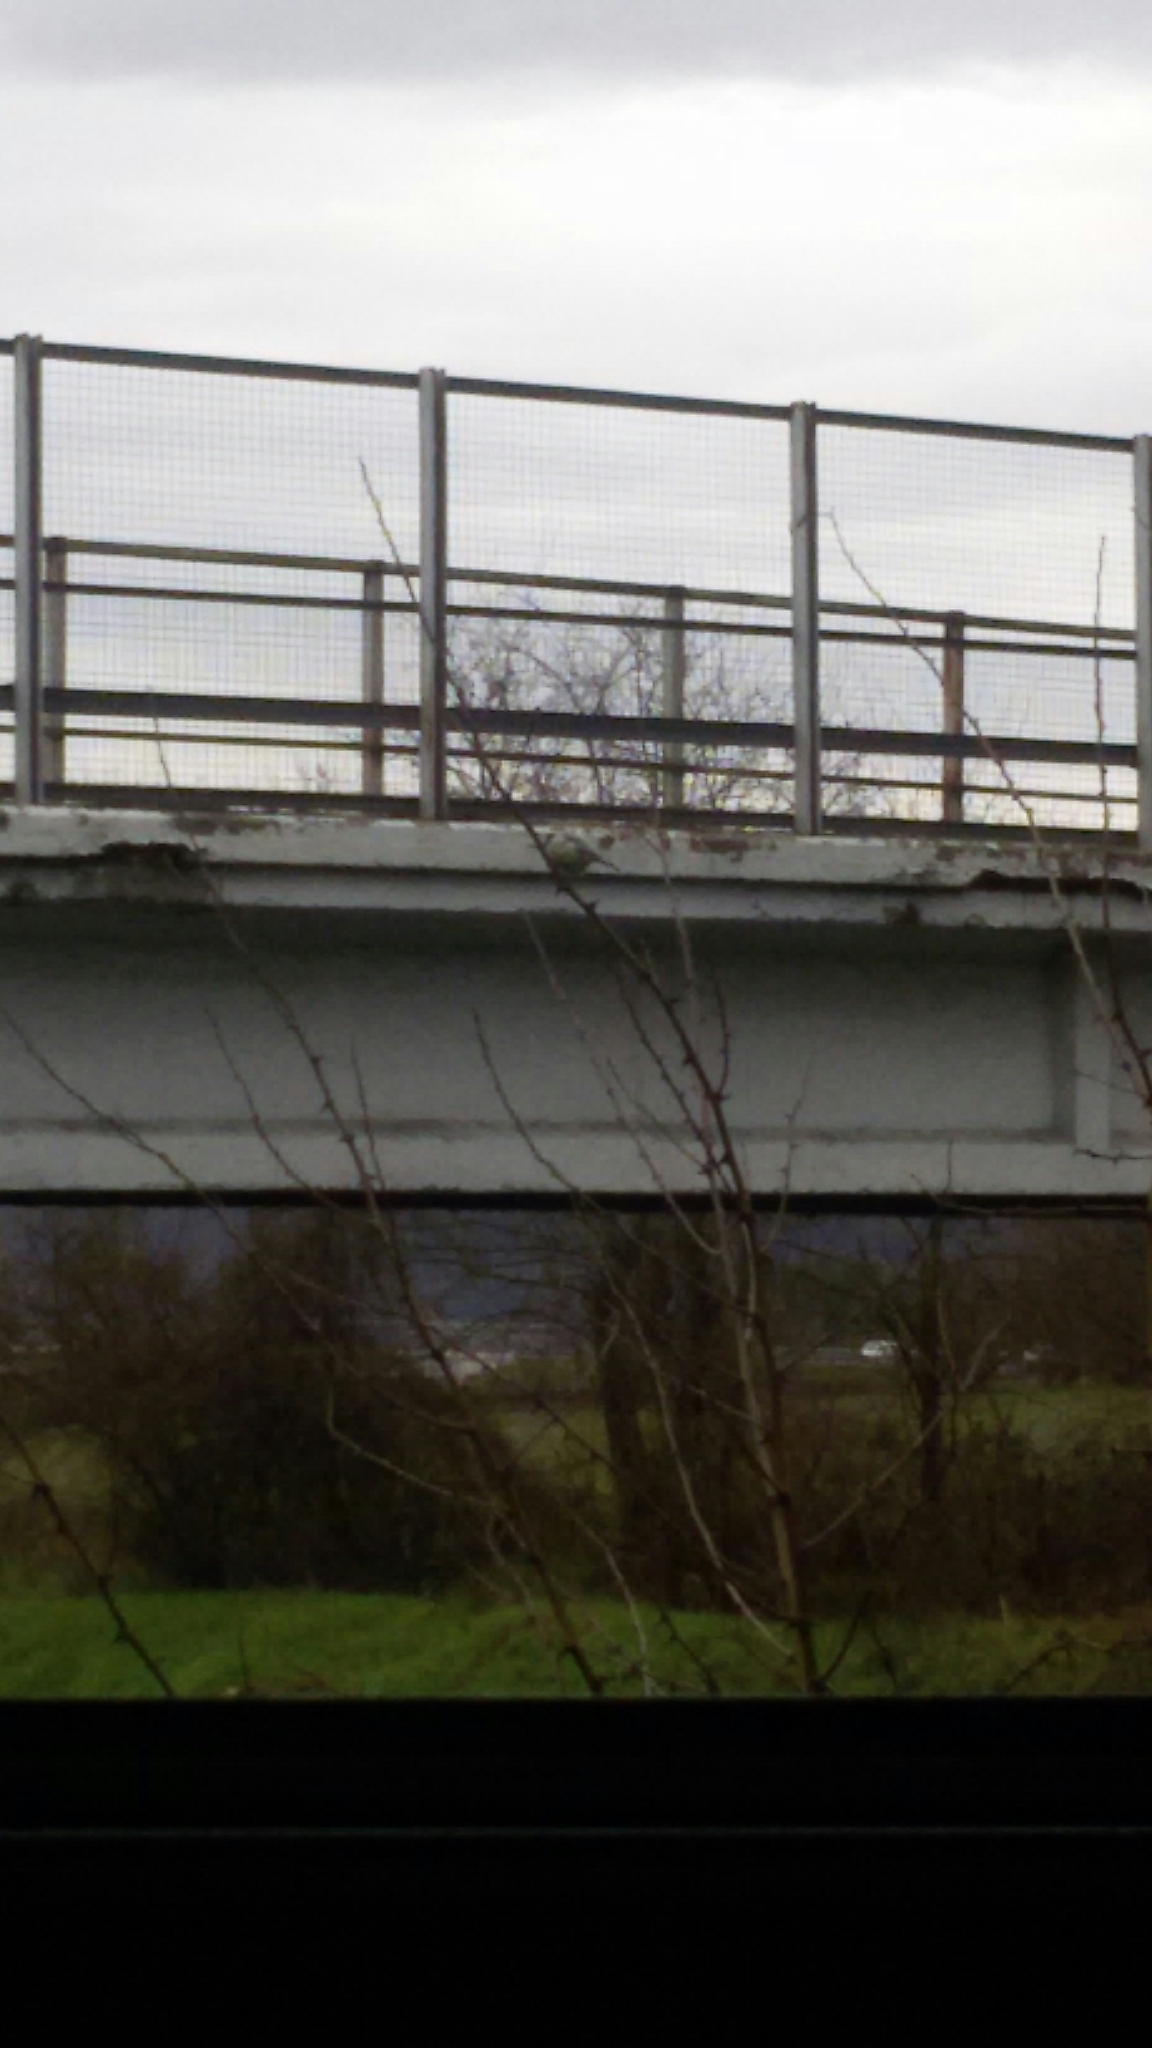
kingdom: Animalia
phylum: Chordata
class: Aves
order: Passeriformes
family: Paridae
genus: Cyanistes
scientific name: Cyanistes caeruleus
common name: Eurasian blue tit
